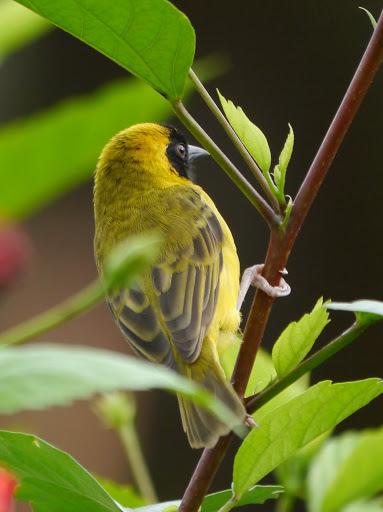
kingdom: Animalia
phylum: Chordata
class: Aves
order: Passeriformes
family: Ploceidae
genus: Ploceus
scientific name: Ploceus pelzelni
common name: Slender-billed weaver
